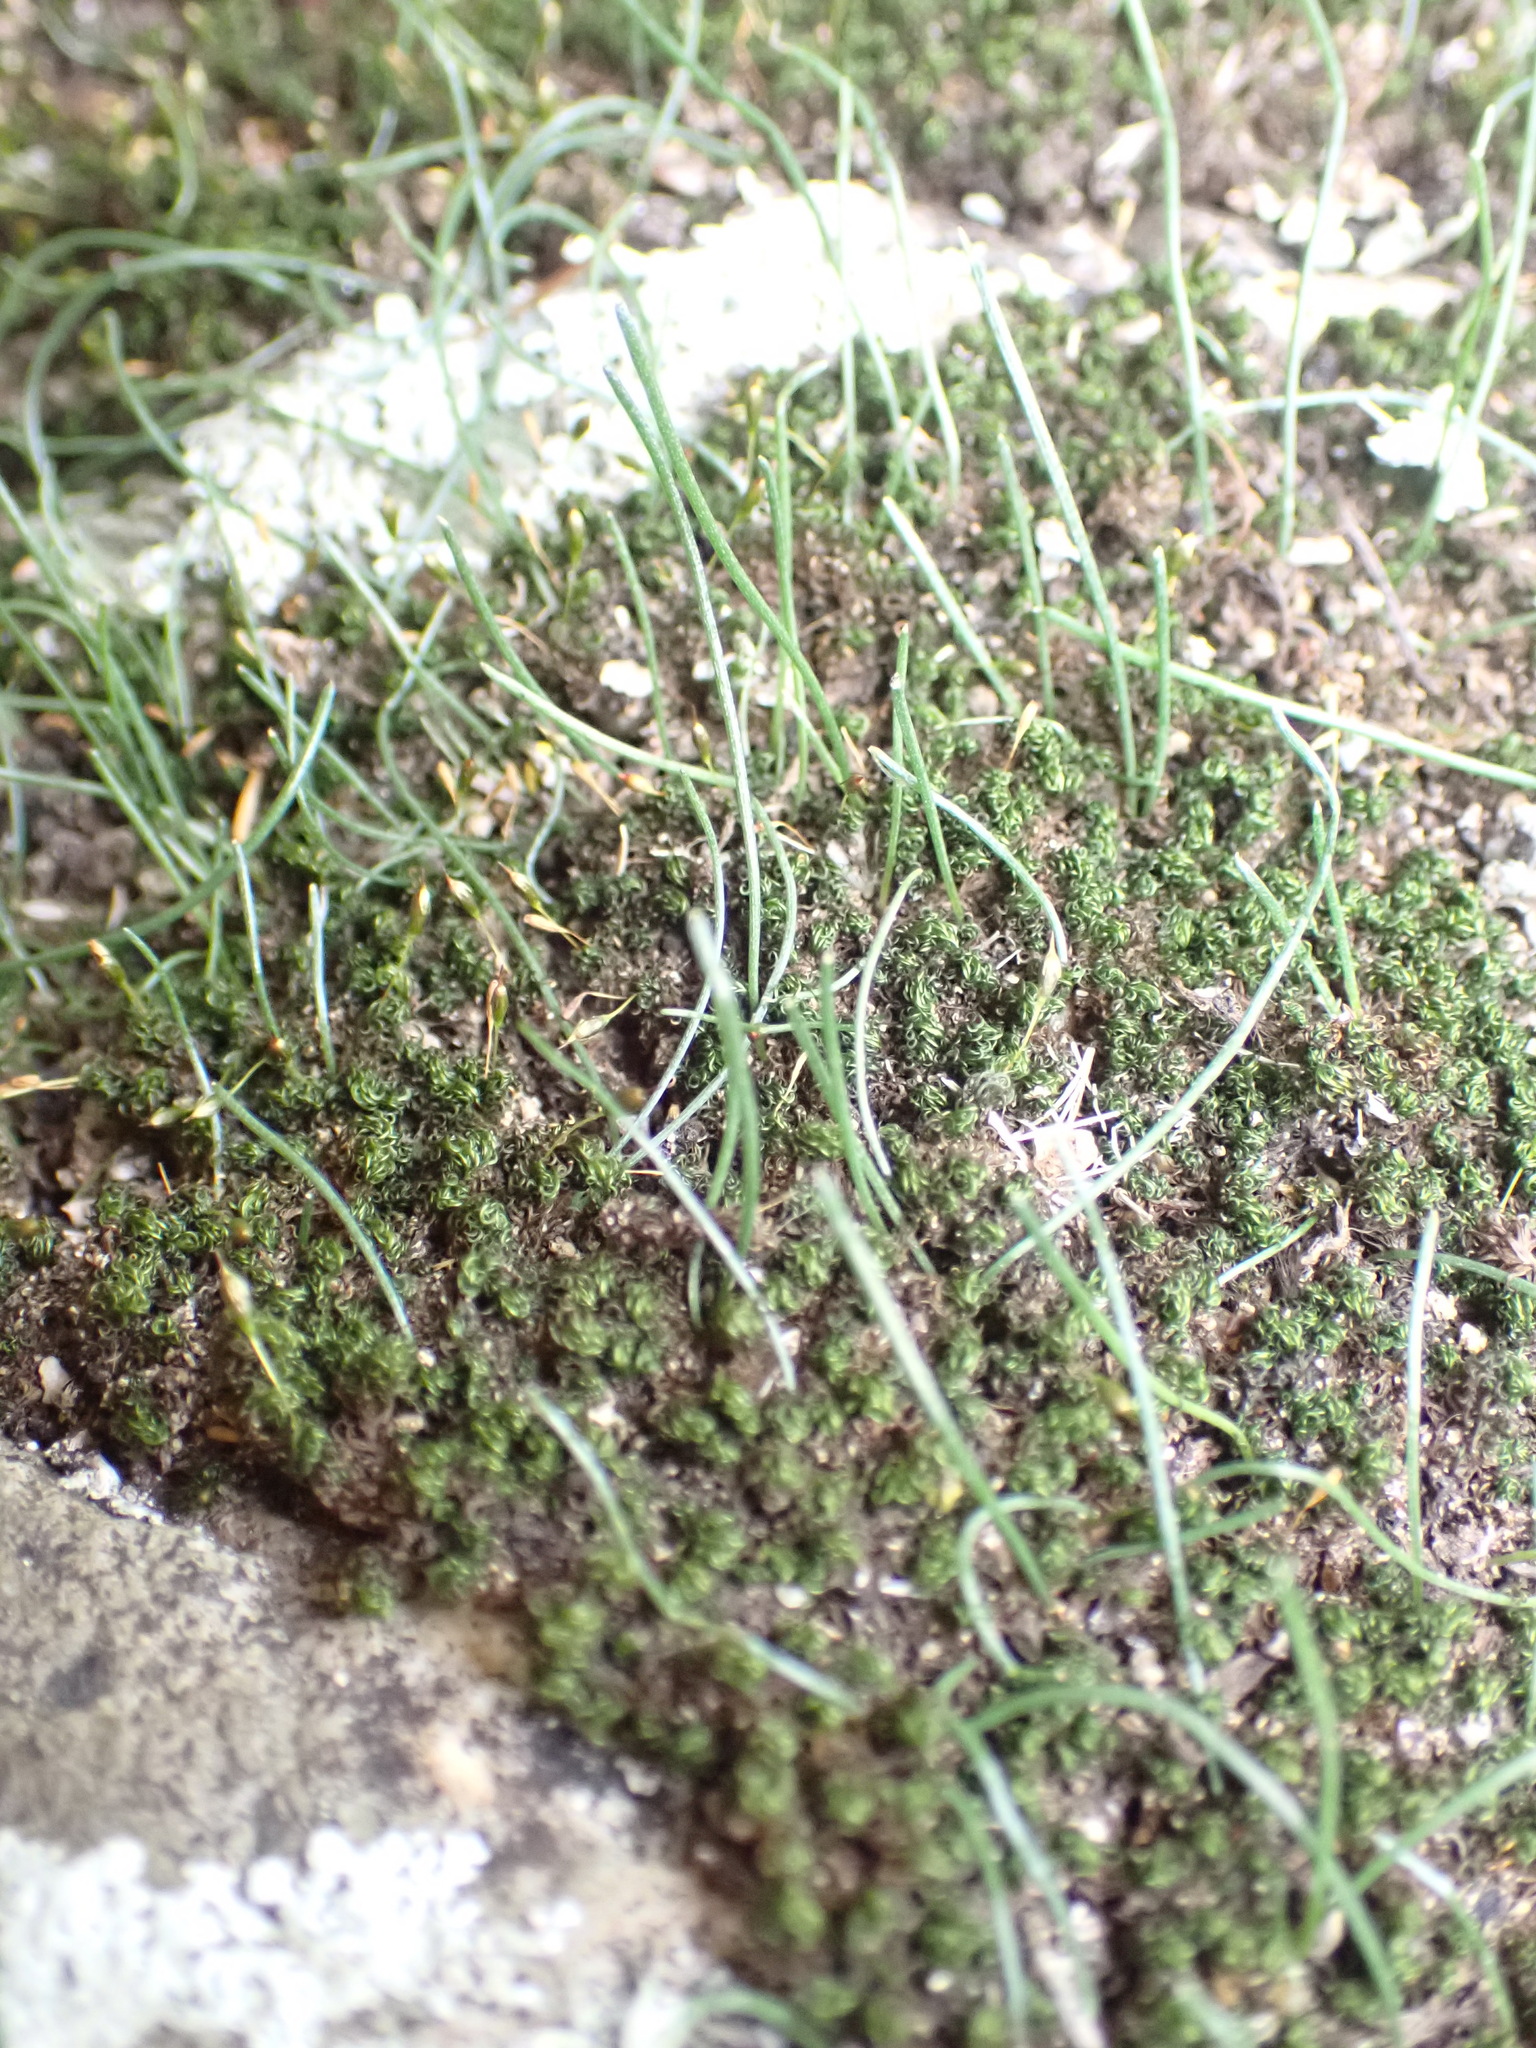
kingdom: Plantae
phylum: Tracheophyta
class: Liliopsida
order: Asparagales
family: Asparagaceae
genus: Drimia
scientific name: Drimia uniflora
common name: Fairy bell
